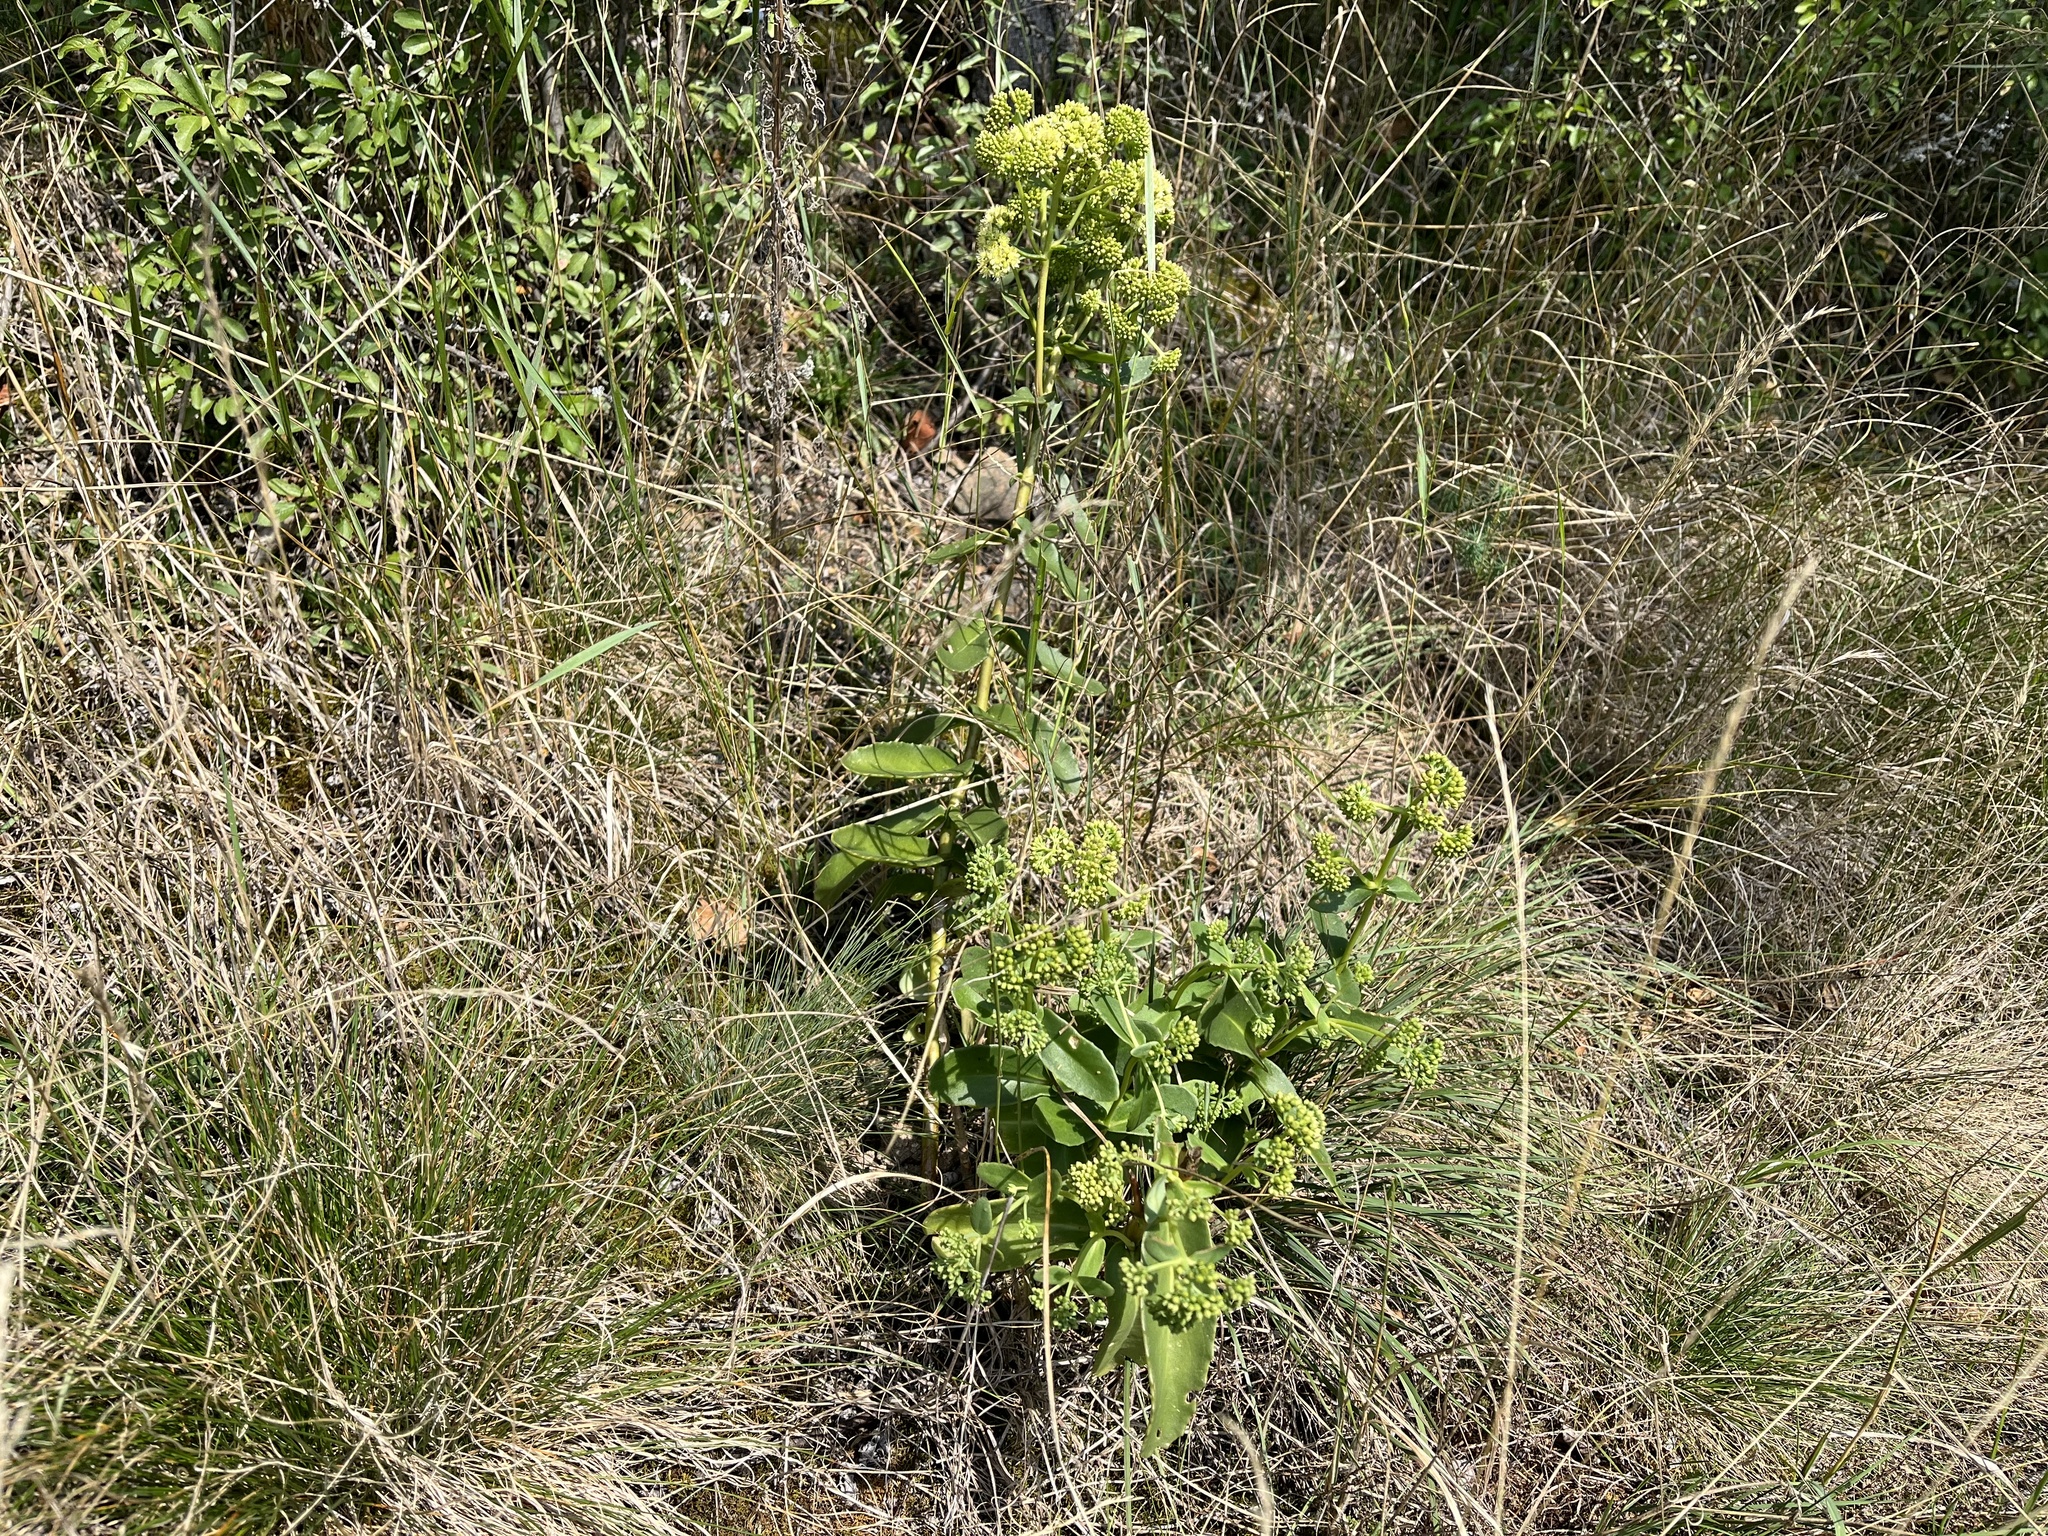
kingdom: Plantae
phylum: Tracheophyta
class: Magnoliopsida
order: Saxifragales
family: Crassulaceae
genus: Hylotelephium
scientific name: Hylotelephium maximum
